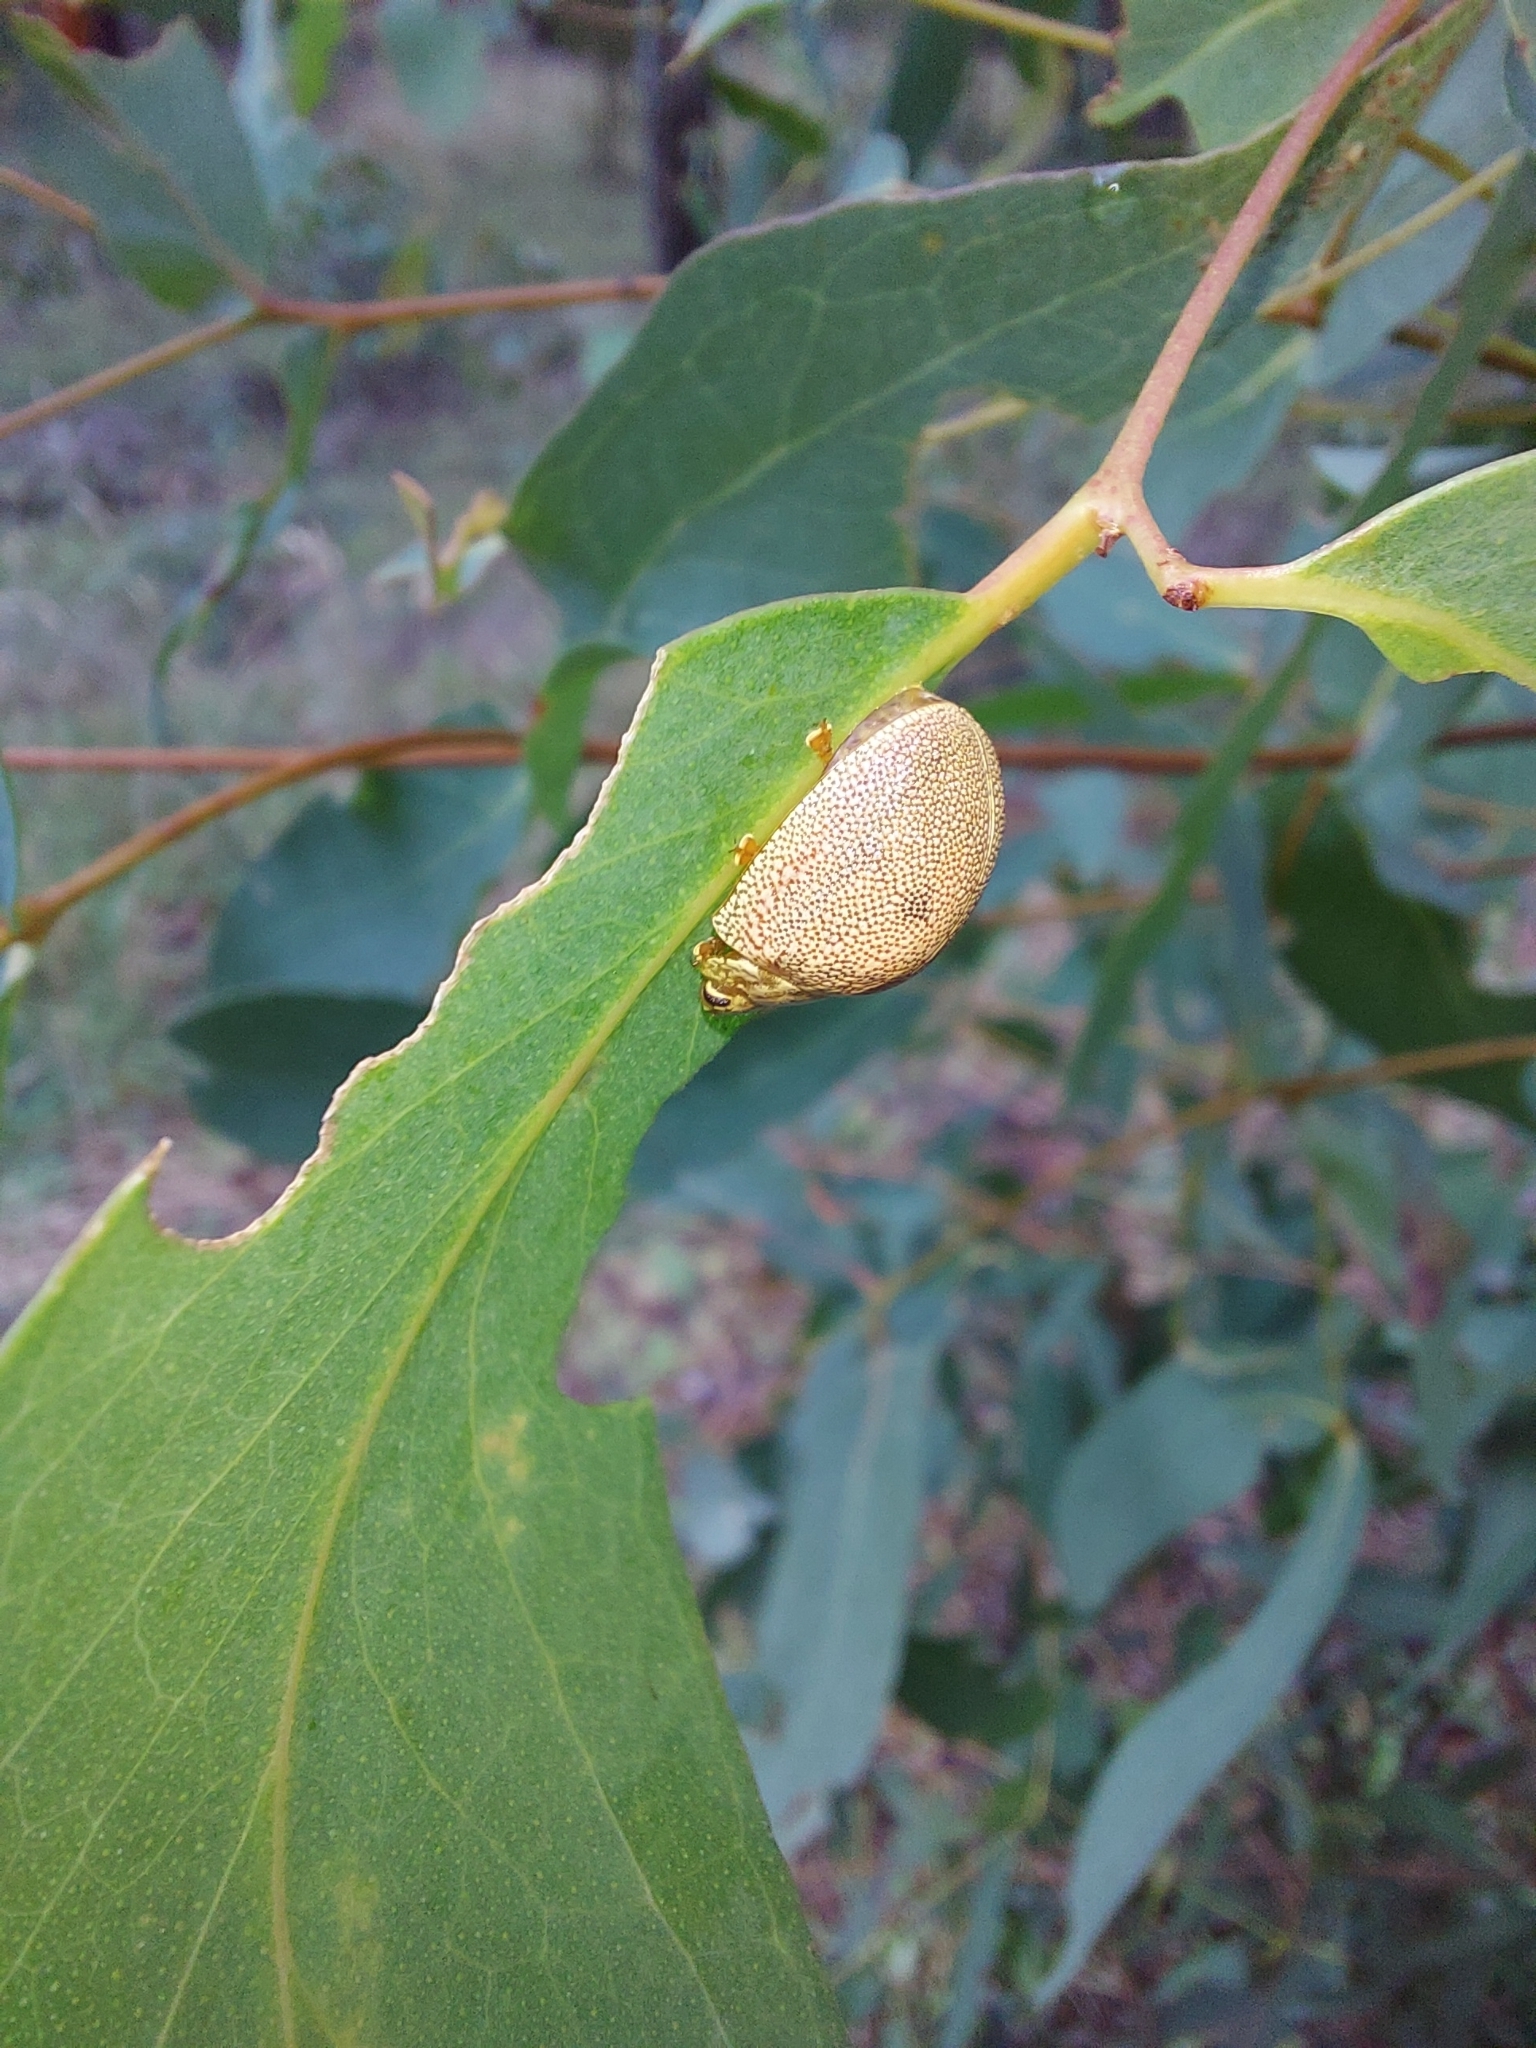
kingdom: Animalia
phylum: Arthropoda
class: Insecta
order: Coleoptera
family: Chrysomelidae
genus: Paropsis
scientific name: Paropsis
